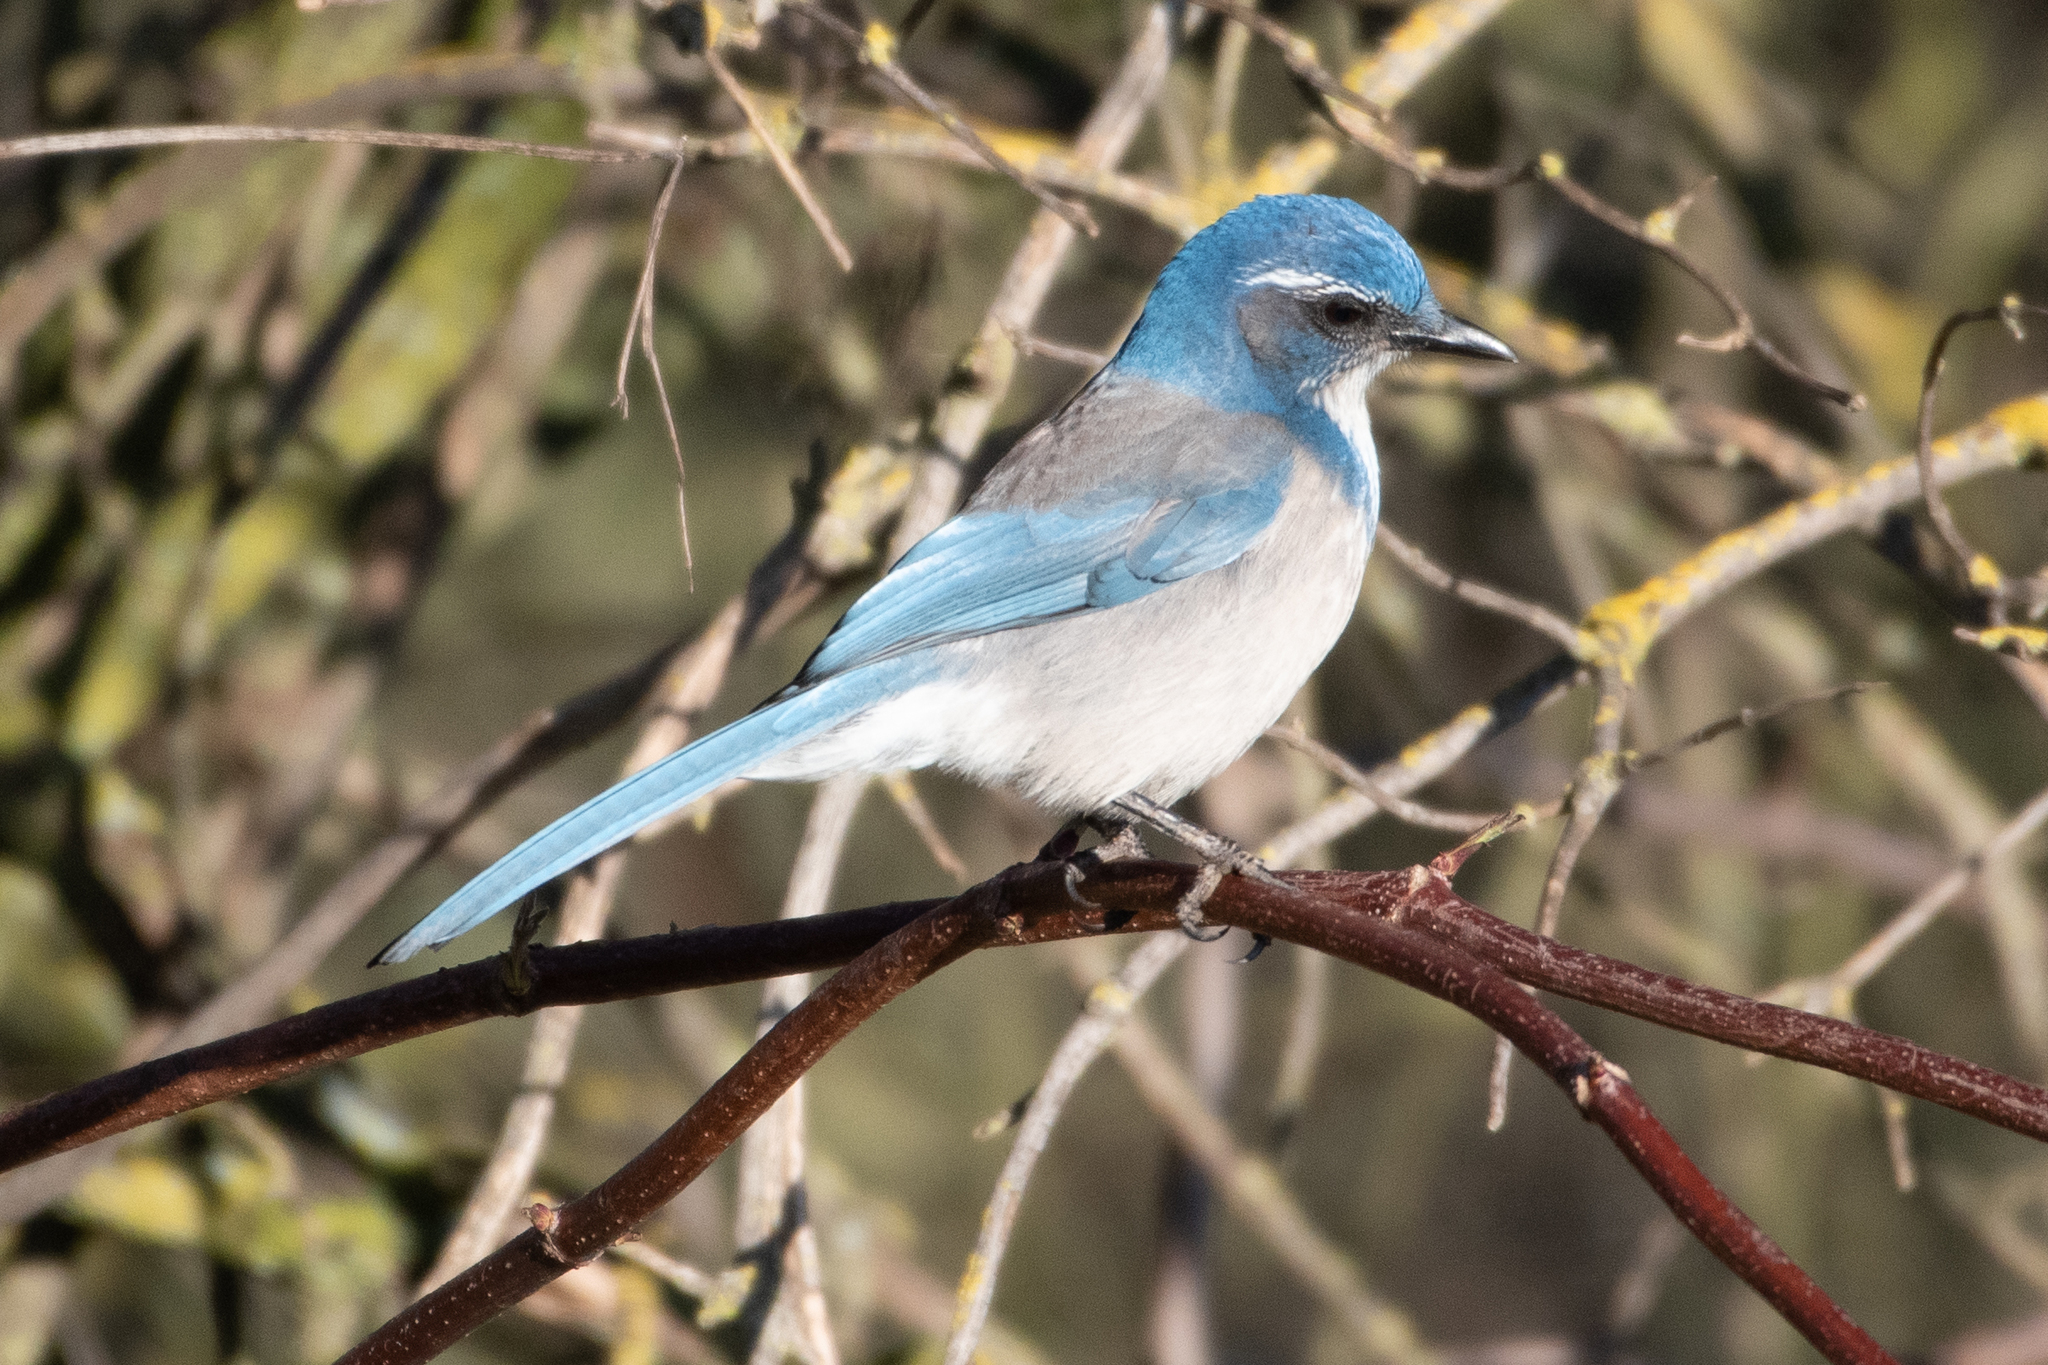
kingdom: Animalia
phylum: Chordata
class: Aves
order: Passeriformes
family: Corvidae
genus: Aphelocoma
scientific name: Aphelocoma californica
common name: California scrub-jay
